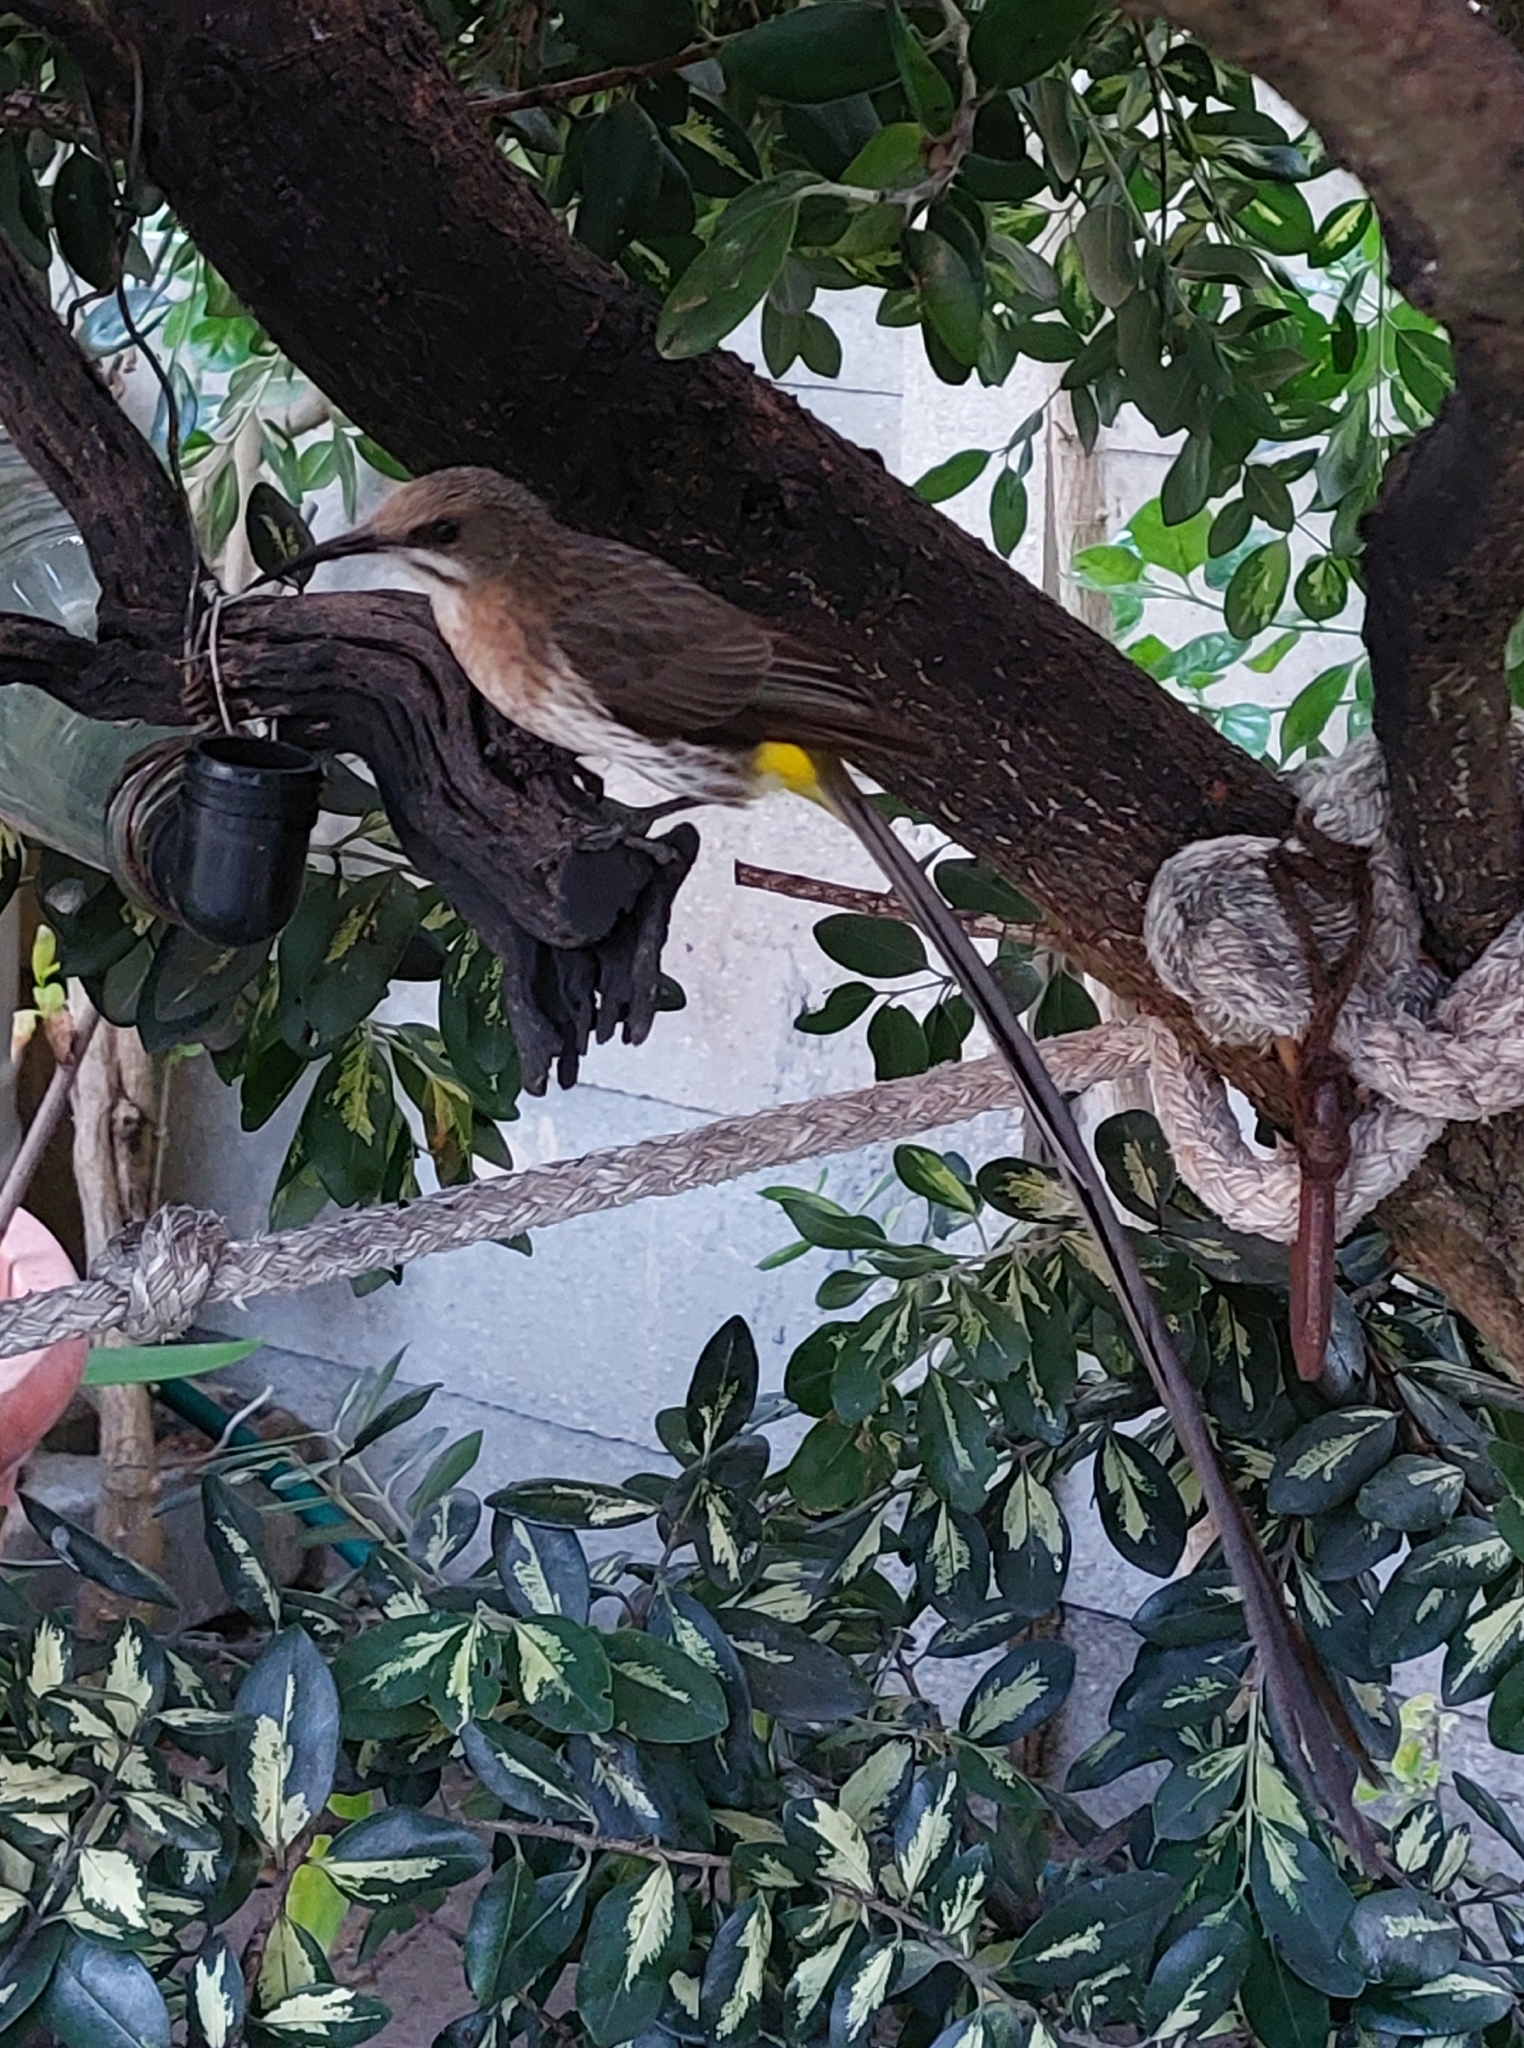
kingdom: Animalia
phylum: Chordata
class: Aves
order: Passeriformes
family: Promeropidae
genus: Promerops
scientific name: Promerops cafer
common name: Cape sugarbird
